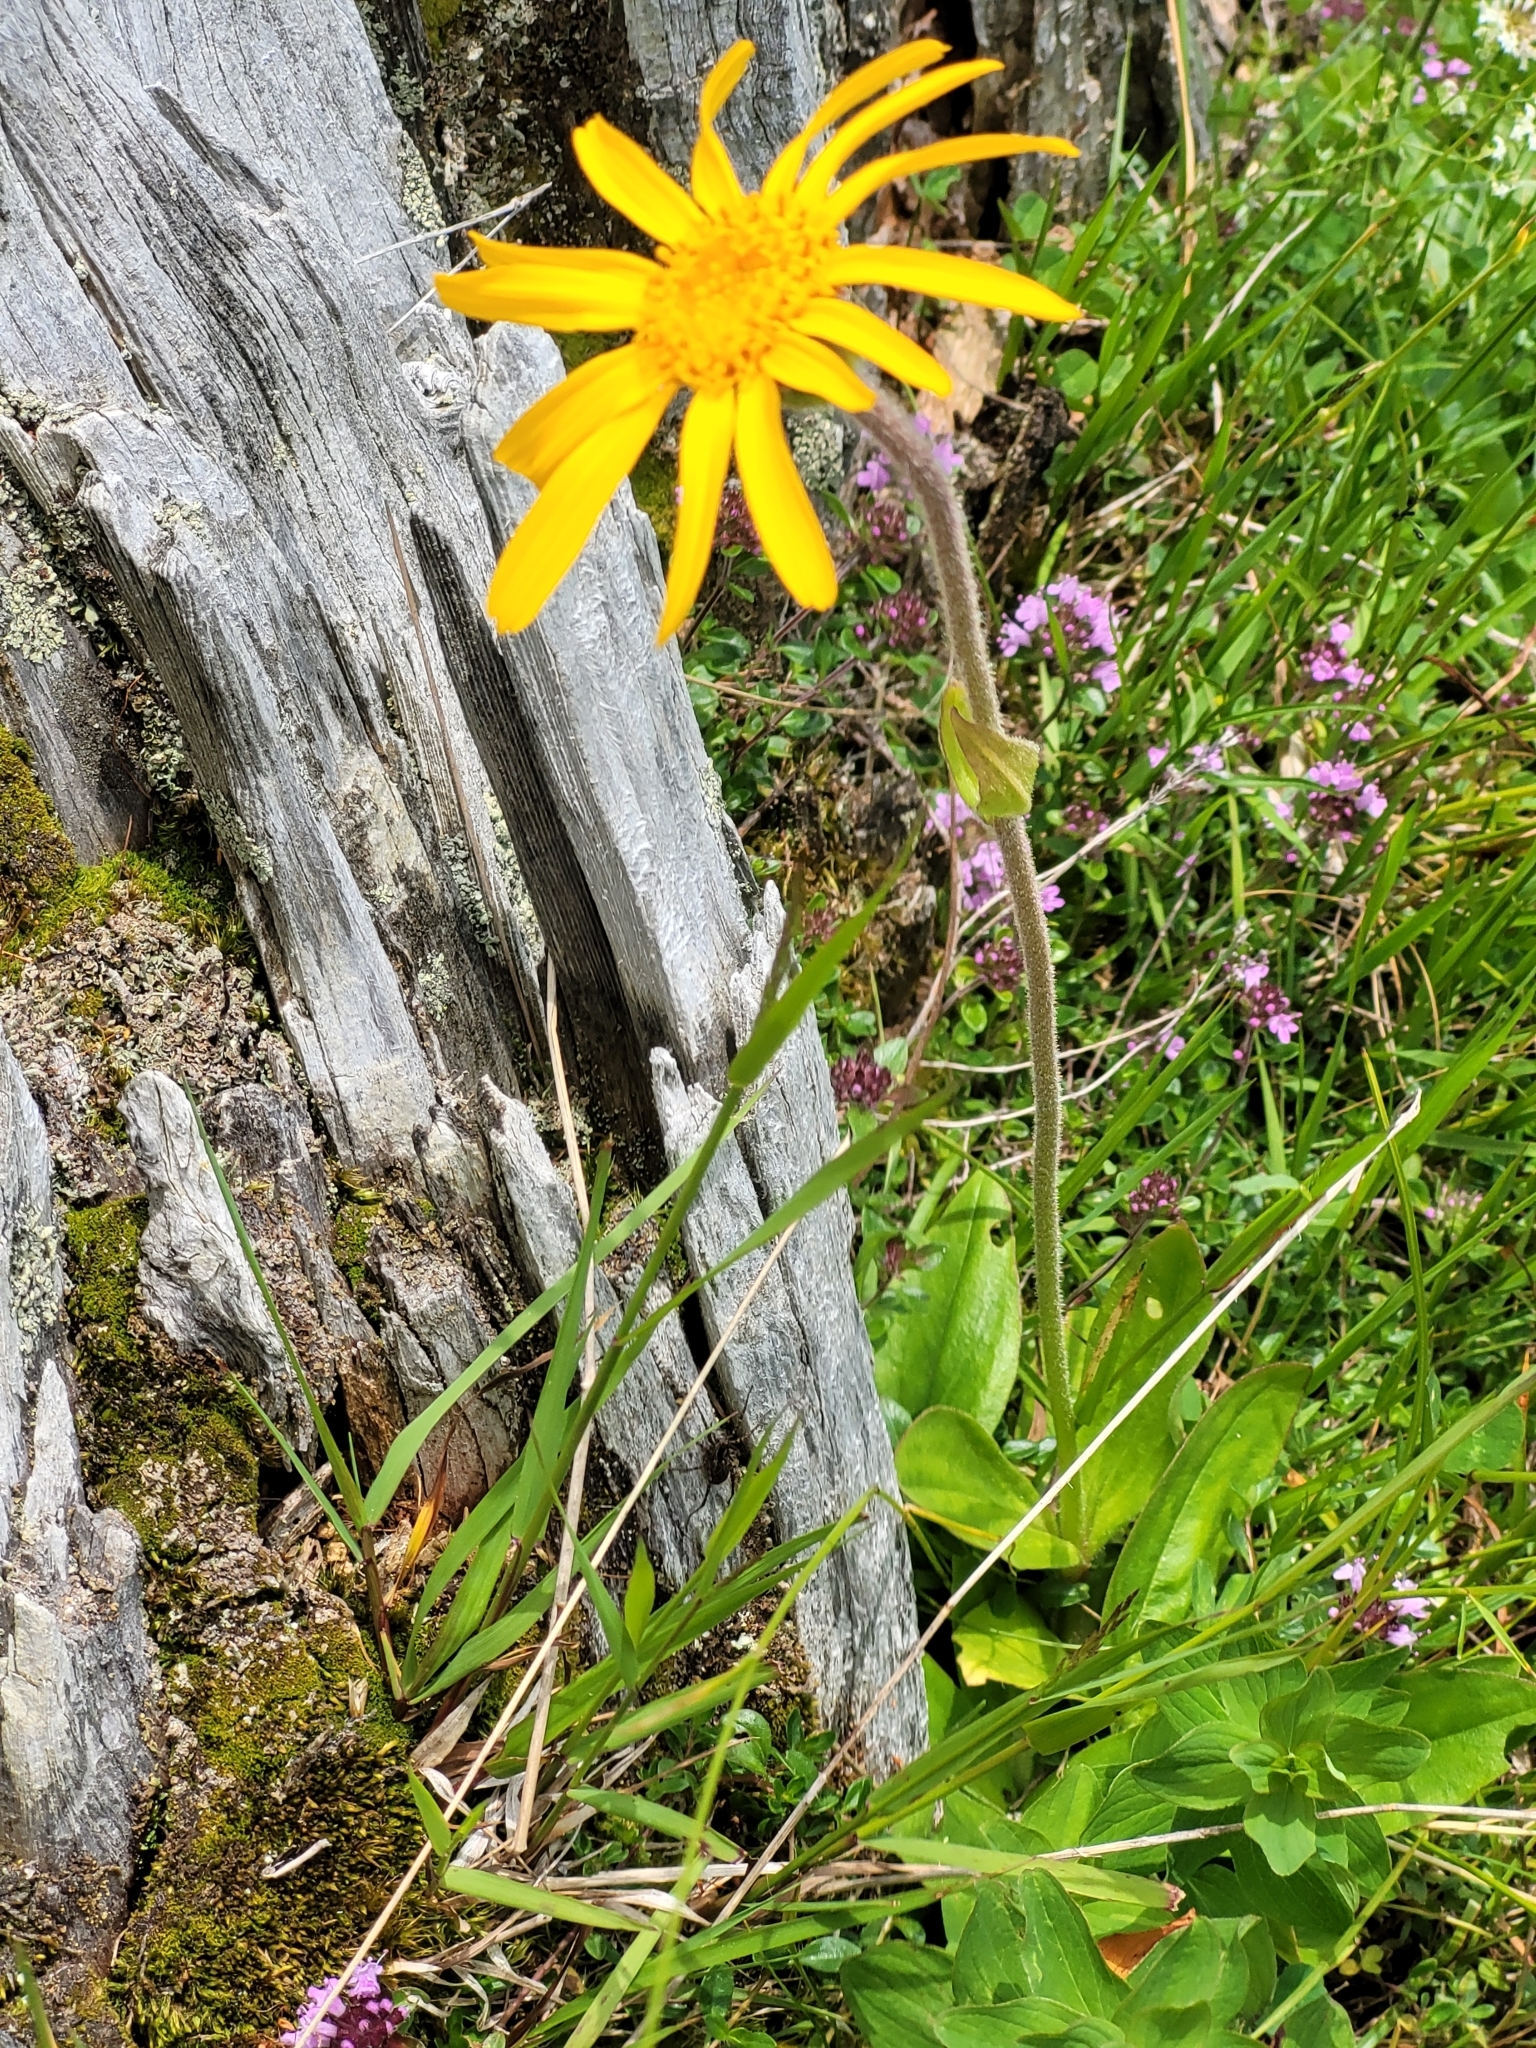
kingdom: Plantae
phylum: Tracheophyta
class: Magnoliopsida
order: Asterales
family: Asteraceae
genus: Arnica
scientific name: Arnica montana
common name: Leopard's bane
